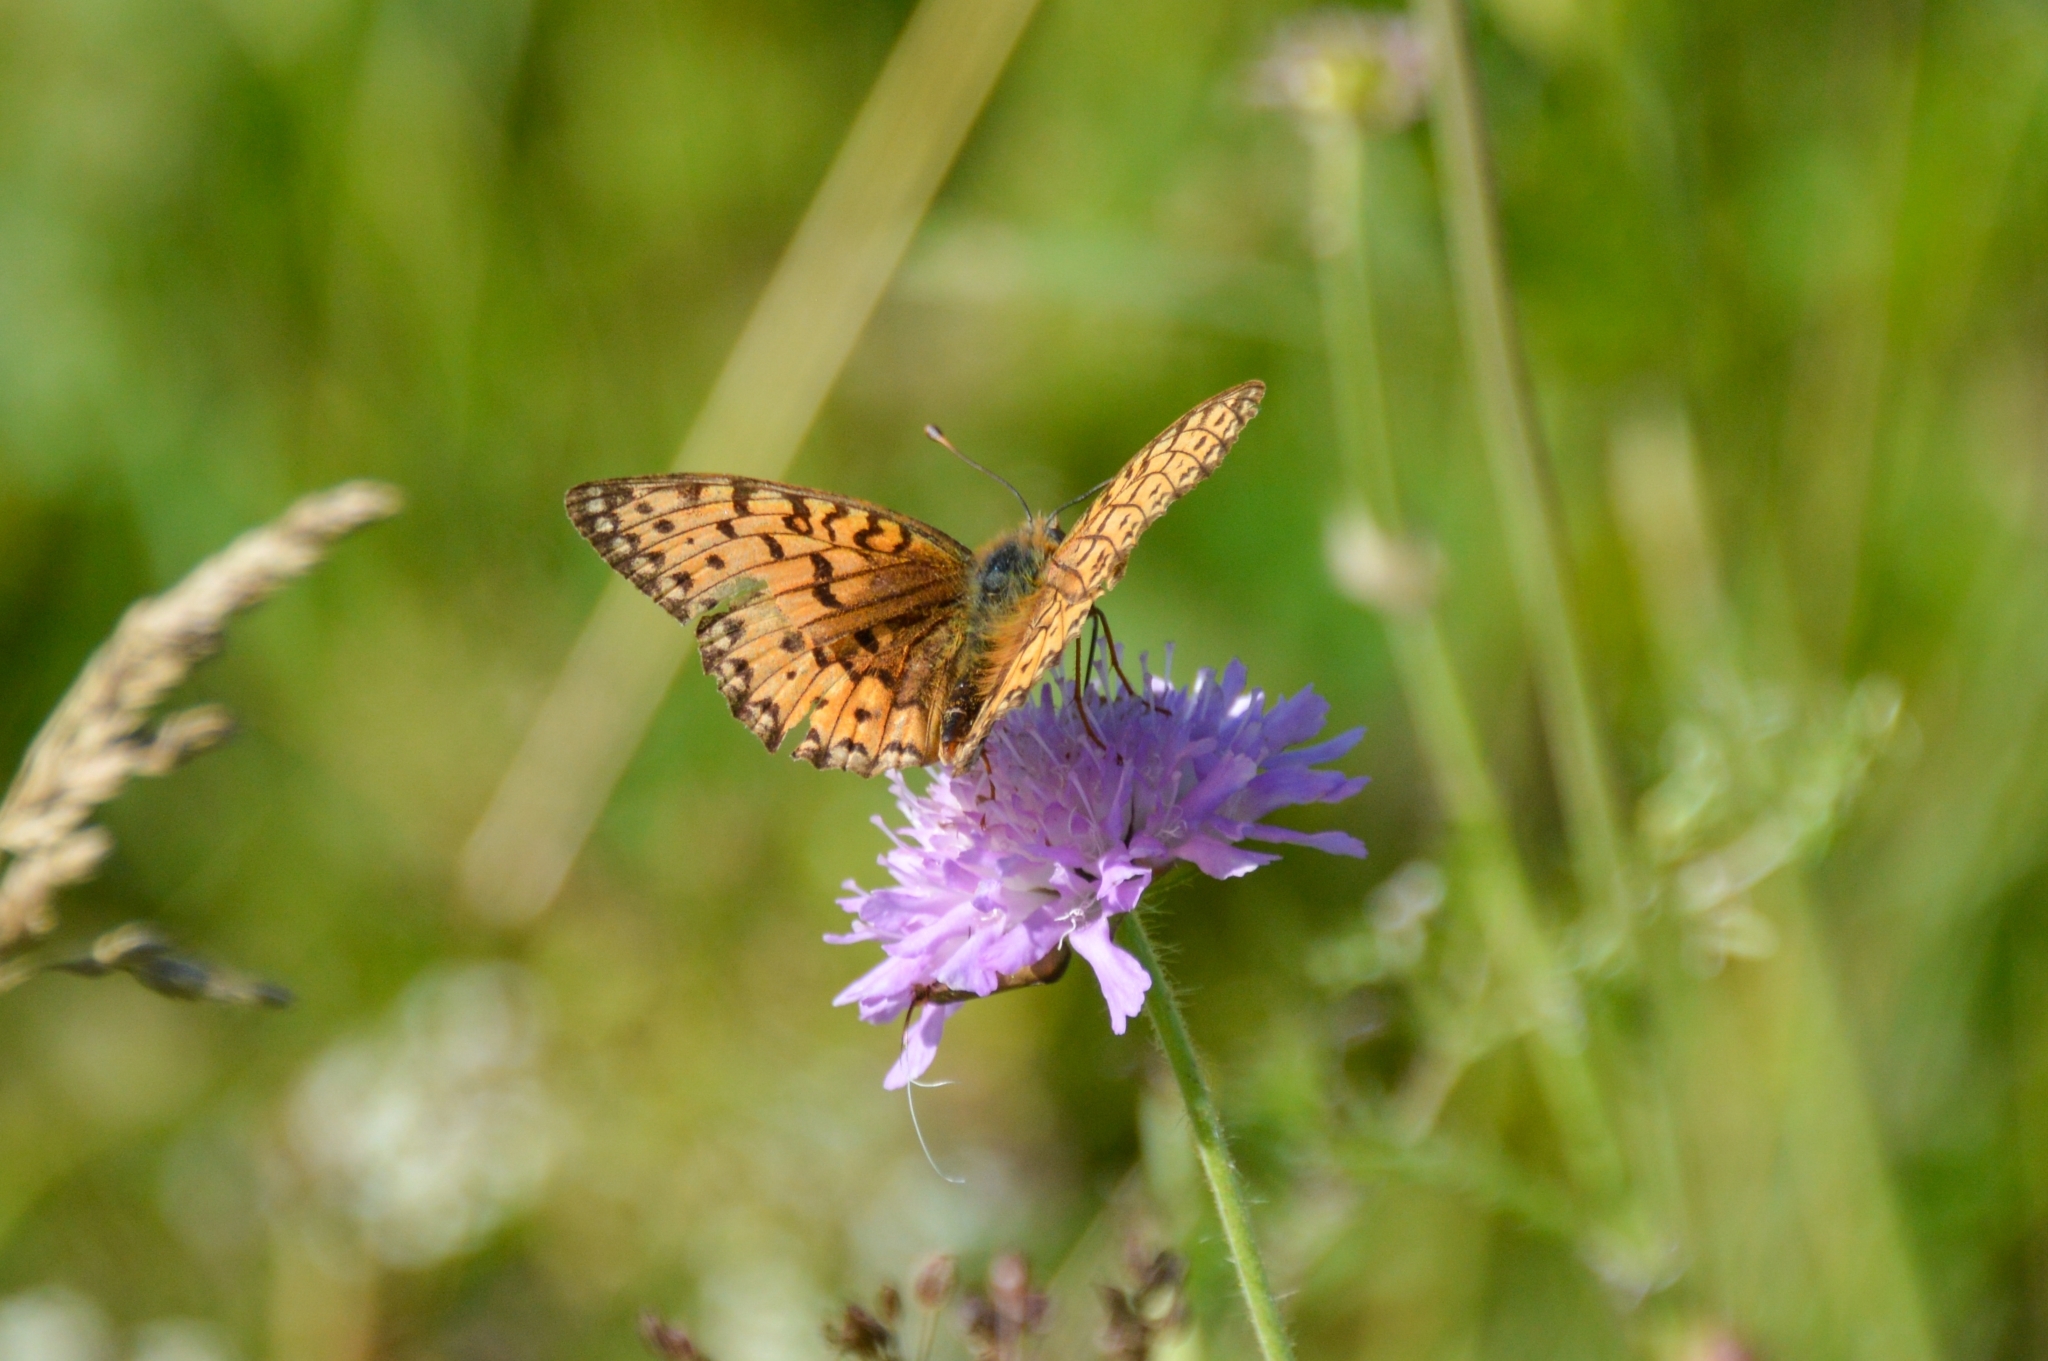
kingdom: Animalia
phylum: Arthropoda
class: Insecta
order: Lepidoptera
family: Nymphalidae
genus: Speyeria
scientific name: Speyeria aglaja
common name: Dark green fritillary
